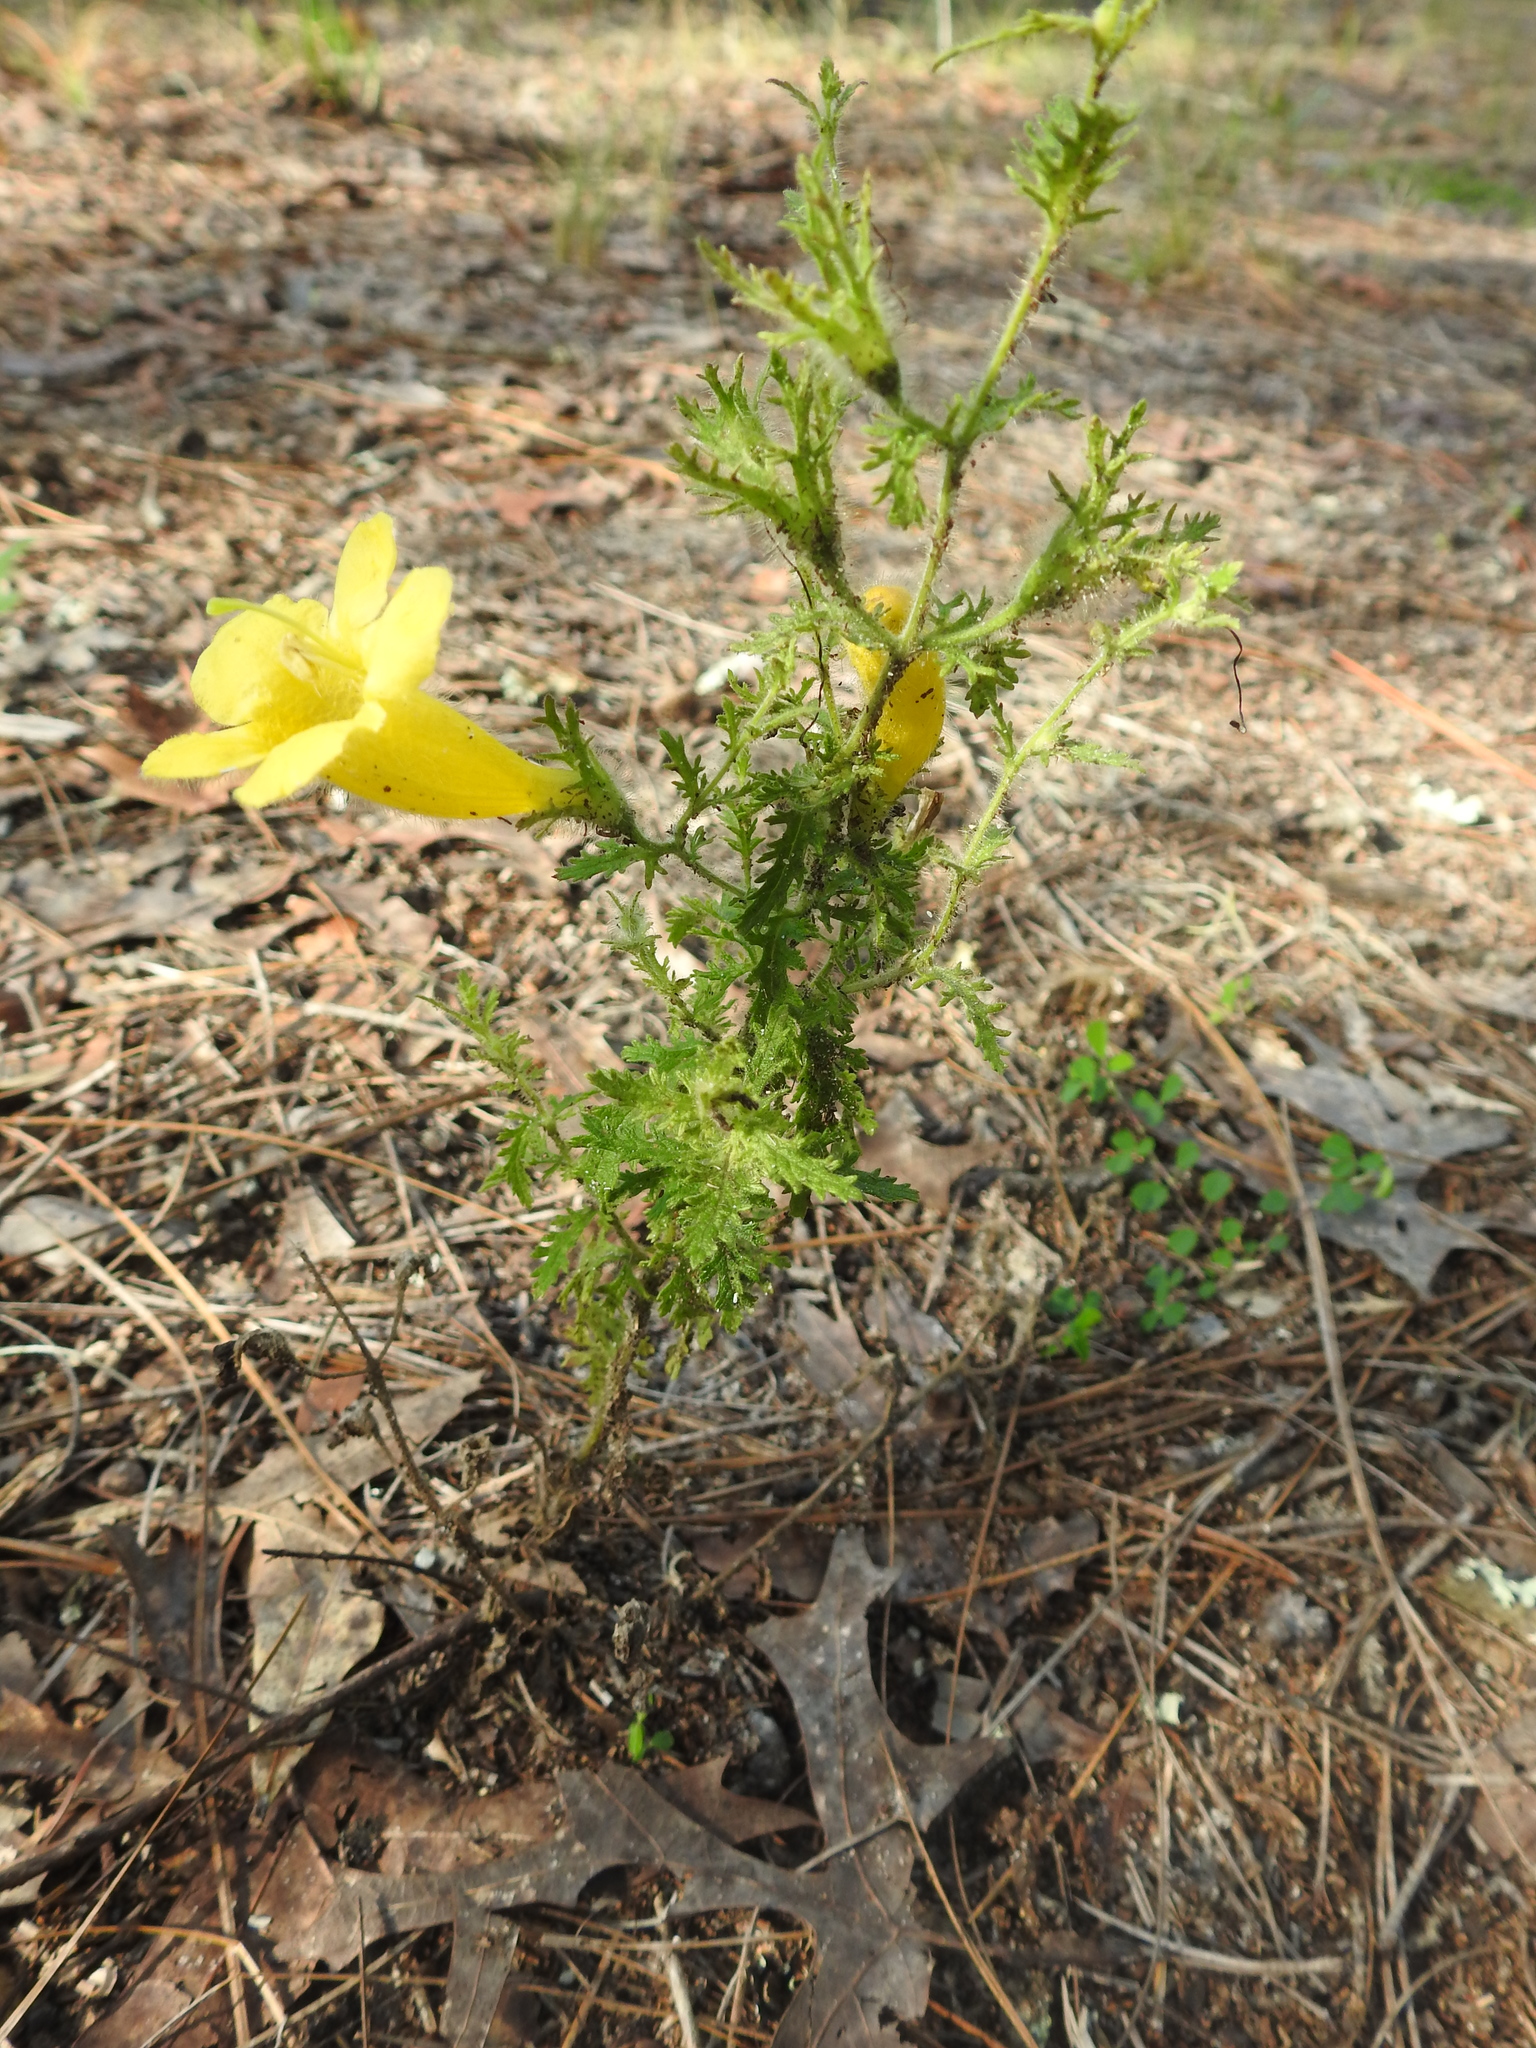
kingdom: Plantae
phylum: Tracheophyta
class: Magnoliopsida
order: Lamiales
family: Orobanchaceae
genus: Aureolaria
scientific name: Aureolaria pectinata
